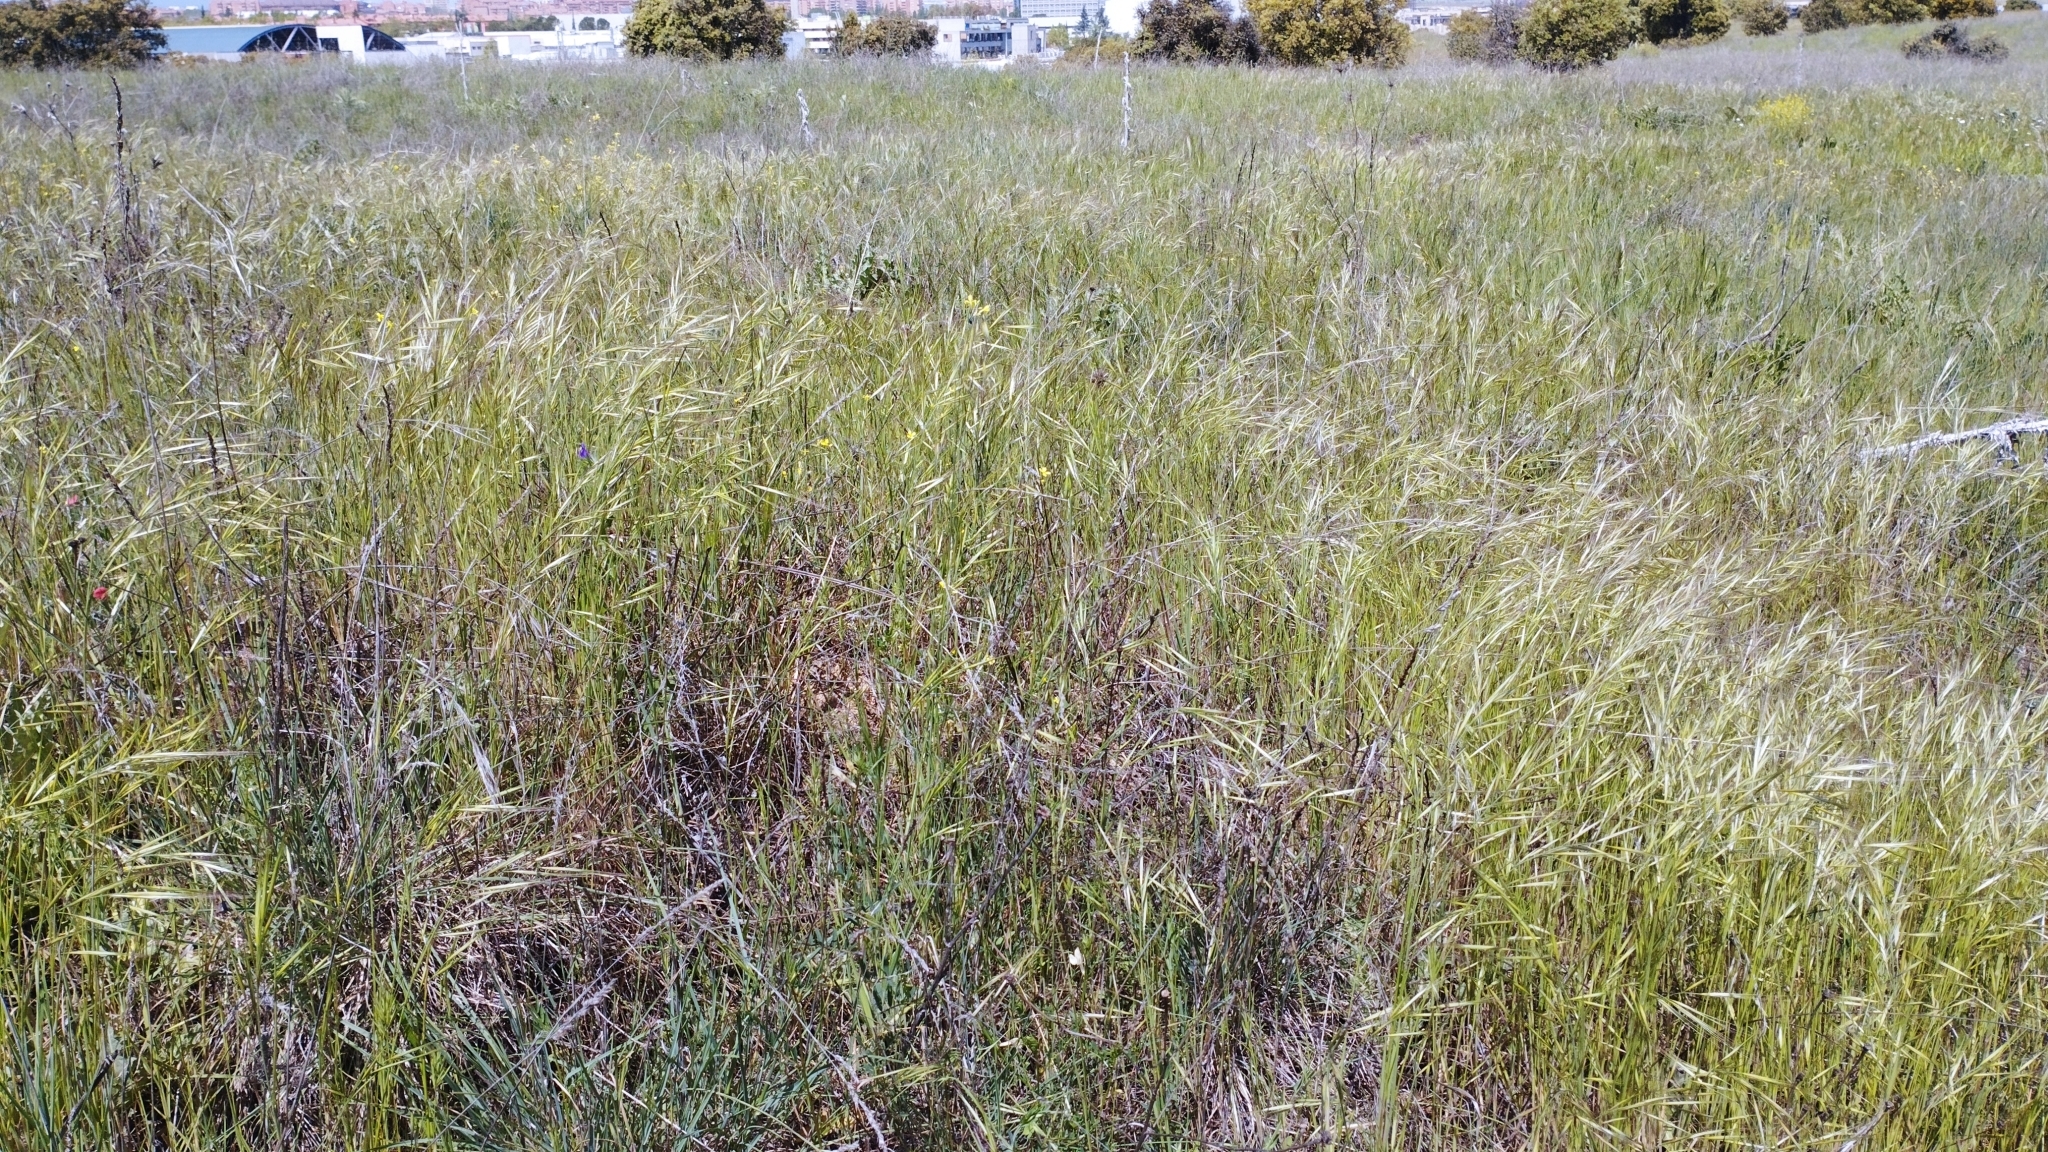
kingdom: Plantae
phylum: Tracheophyta
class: Liliopsida
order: Poales
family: Poaceae
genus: Bromus
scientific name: Bromus diandrus
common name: Ripgut brome
